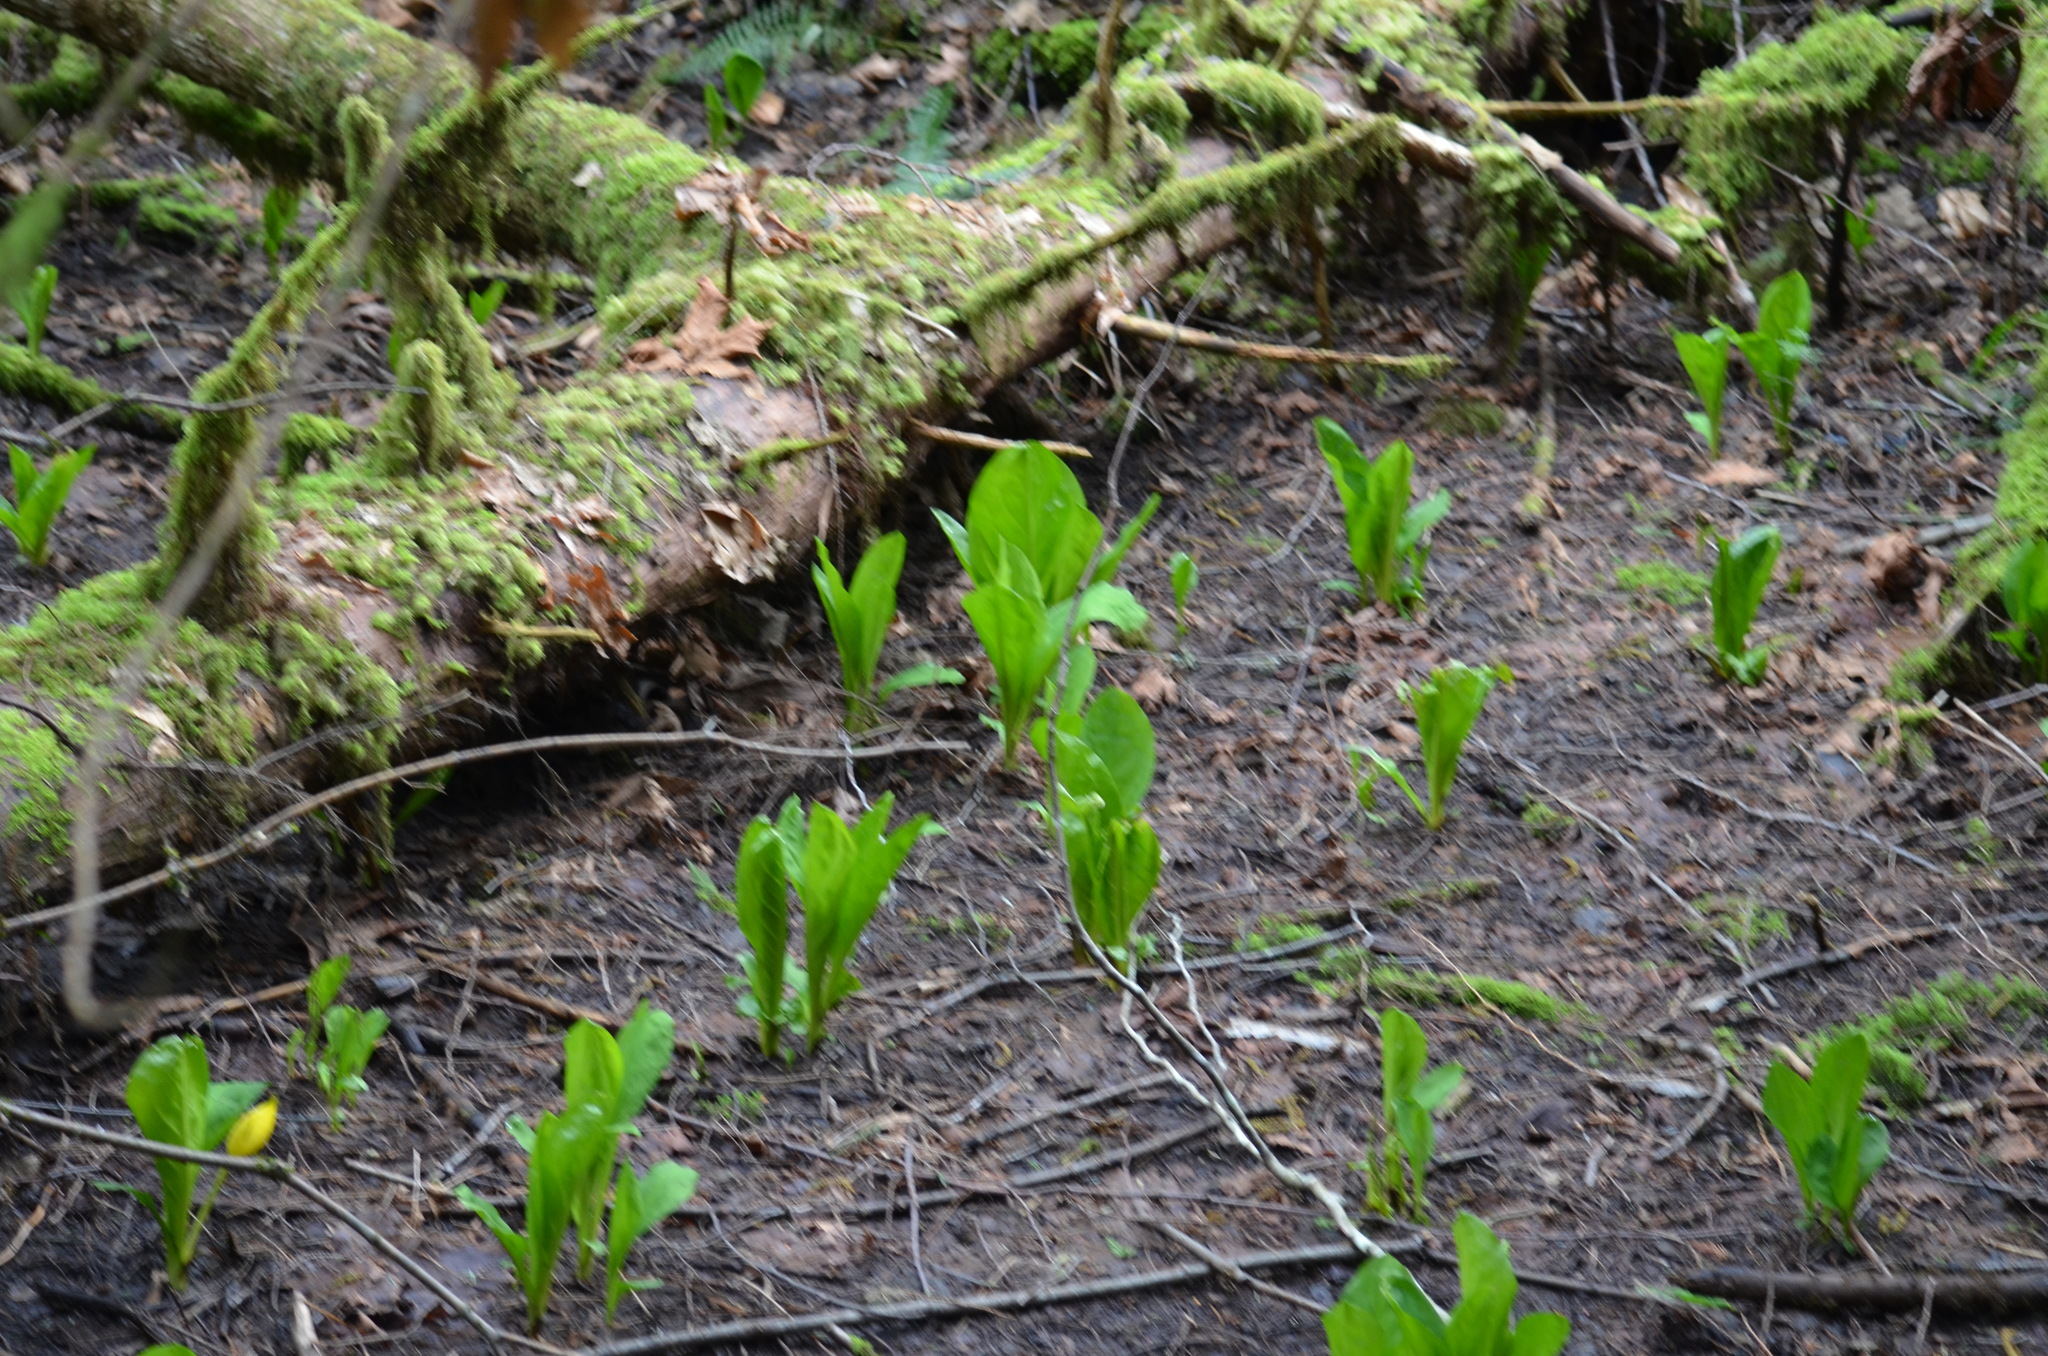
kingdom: Plantae
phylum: Tracheophyta
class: Liliopsida
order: Alismatales
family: Araceae
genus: Lysichiton
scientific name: Lysichiton americanus
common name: American skunk cabbage
